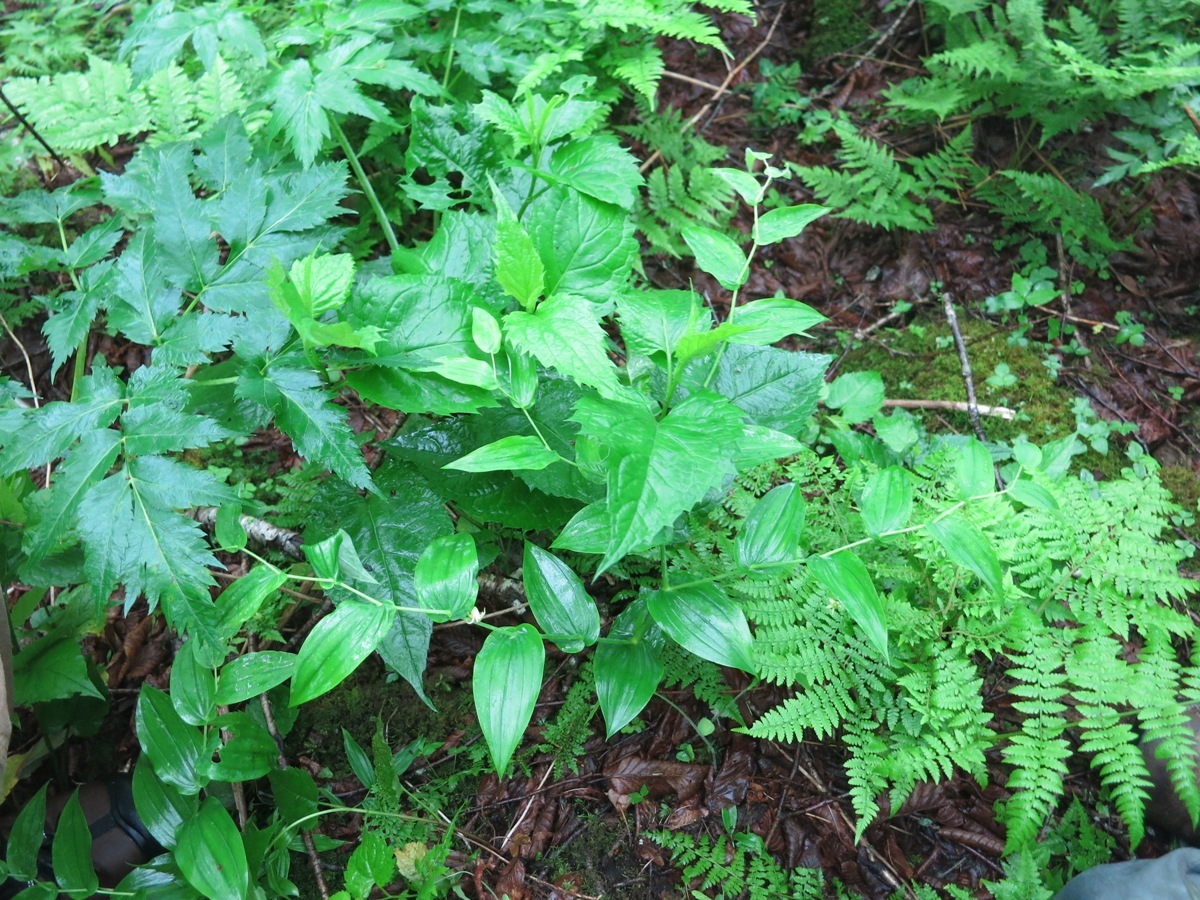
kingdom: Plantae
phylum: Tracheophyta
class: Liliopsida
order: Liliales
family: Liliaceae
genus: Streptopus
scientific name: Streptopus amplexifolius
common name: Clasp twisted stalk
